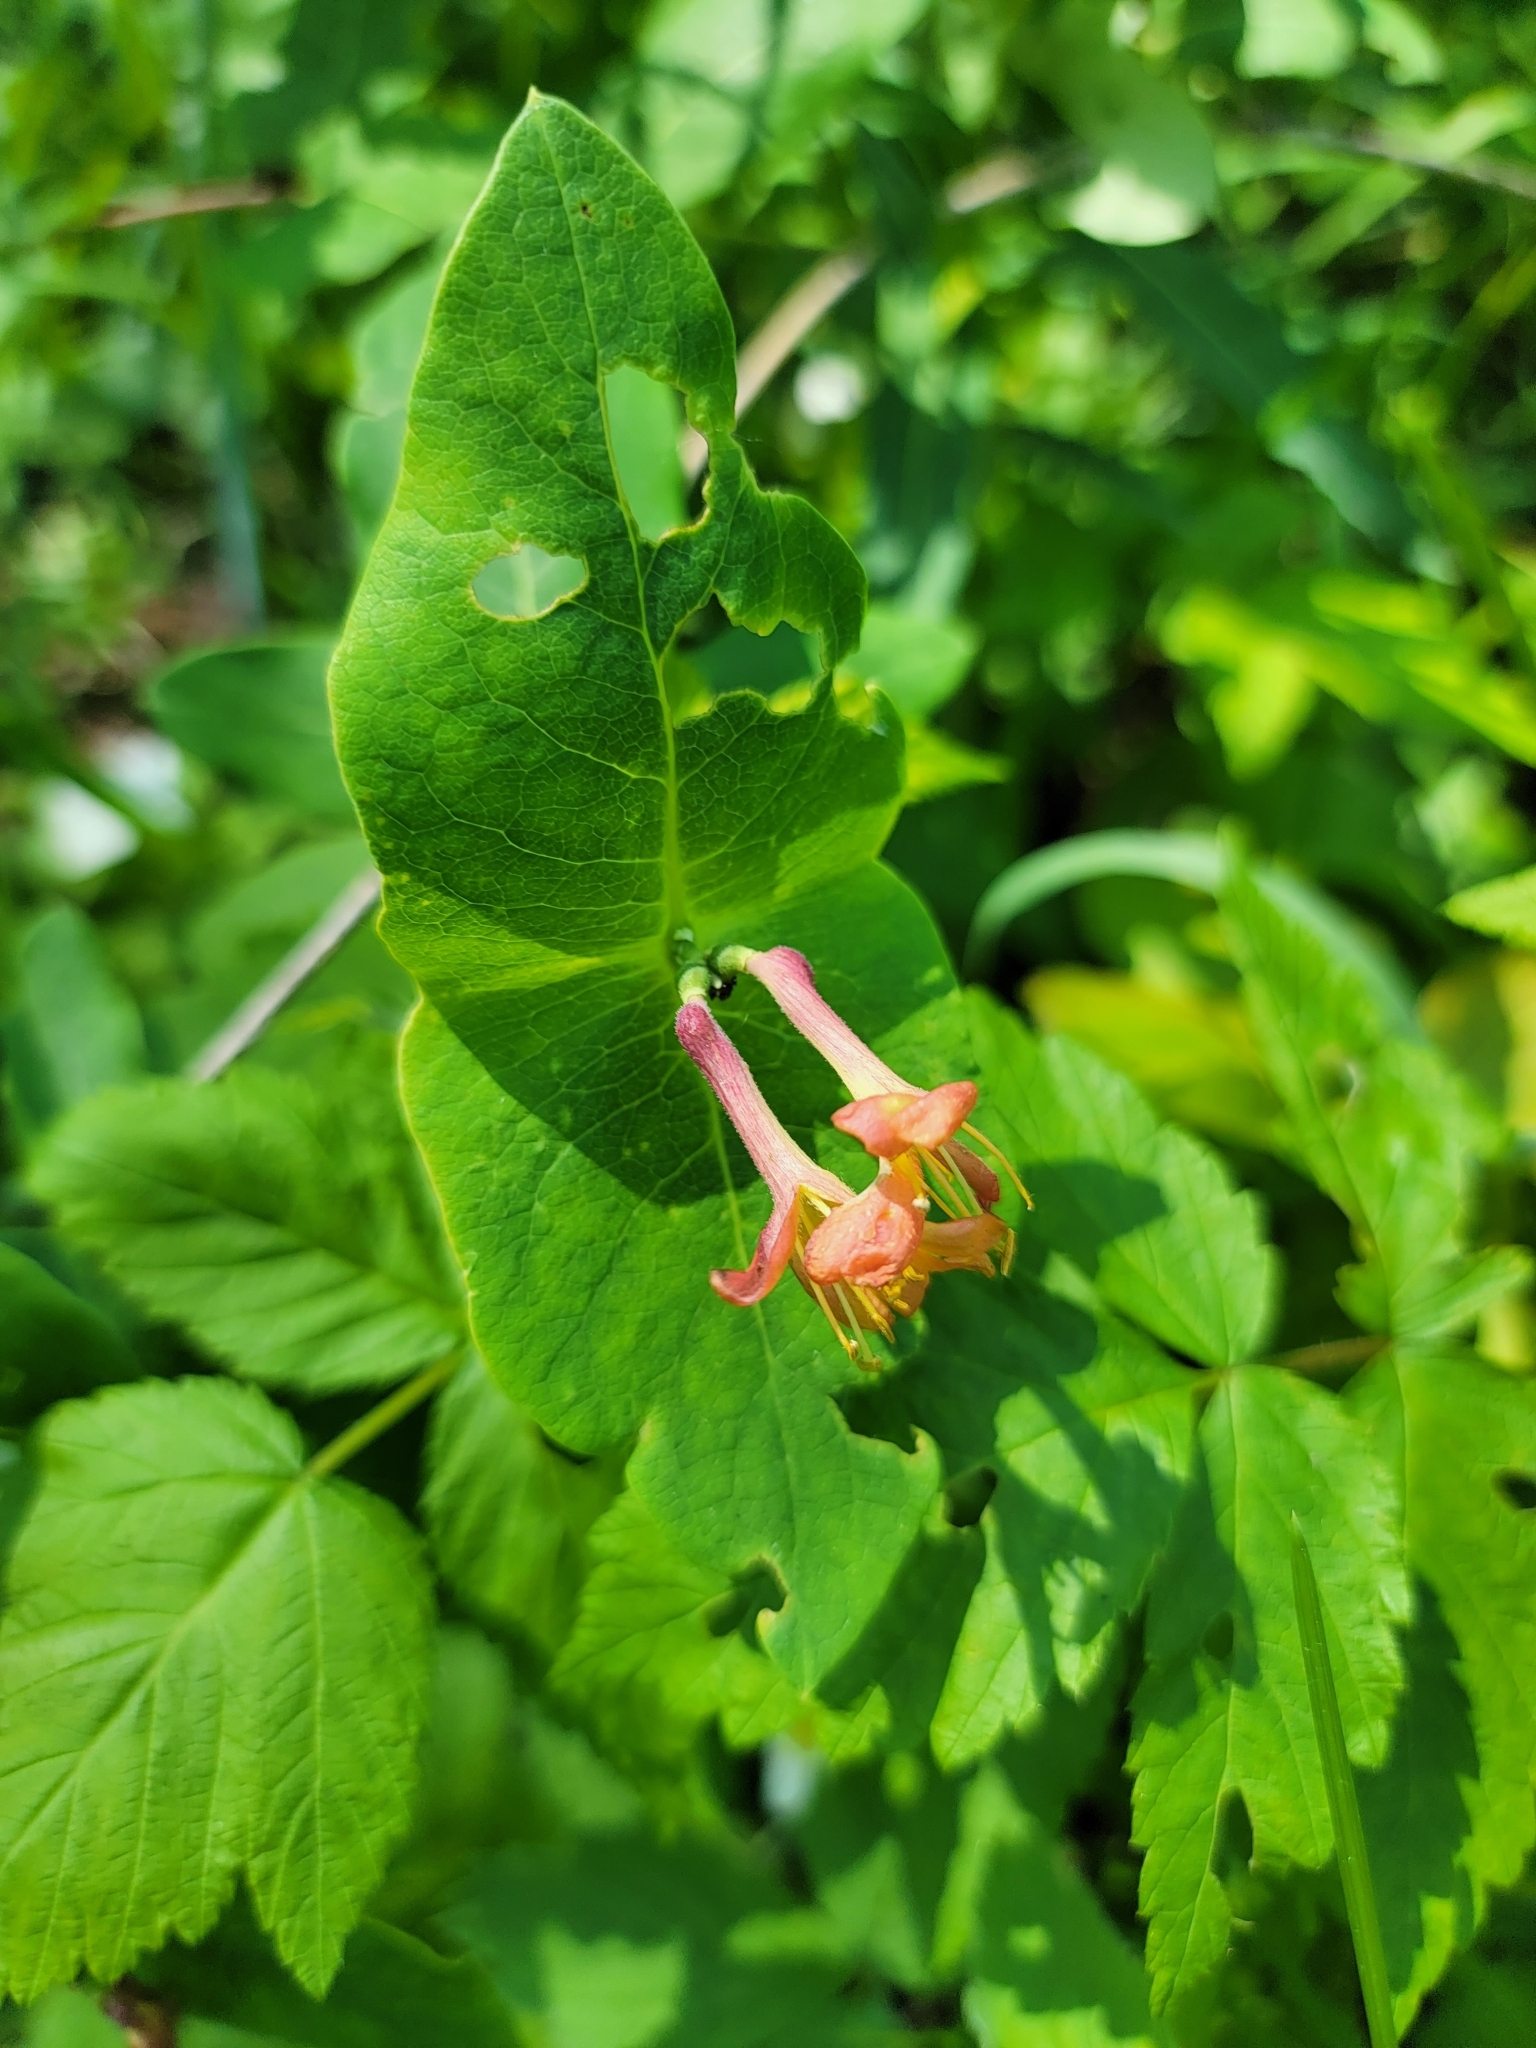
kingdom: Plantae
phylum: Tracheophyta
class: Magnoliopsida
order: Dipsacales
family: Caprifoliaceae
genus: Lonicera
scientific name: Lonicera dioica
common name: Limber honeysuckle
